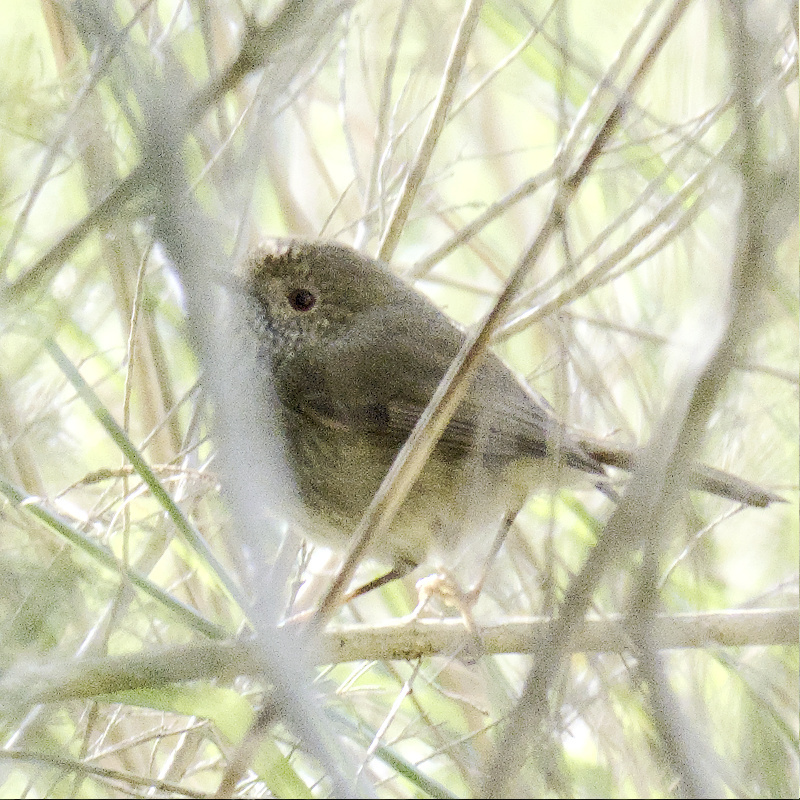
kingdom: Animalia
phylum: Chordata
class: Aves
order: Passeriformes
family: Acanthizidae
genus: Acanthiza
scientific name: Acanthiza pusilla
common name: Brown thornbill
